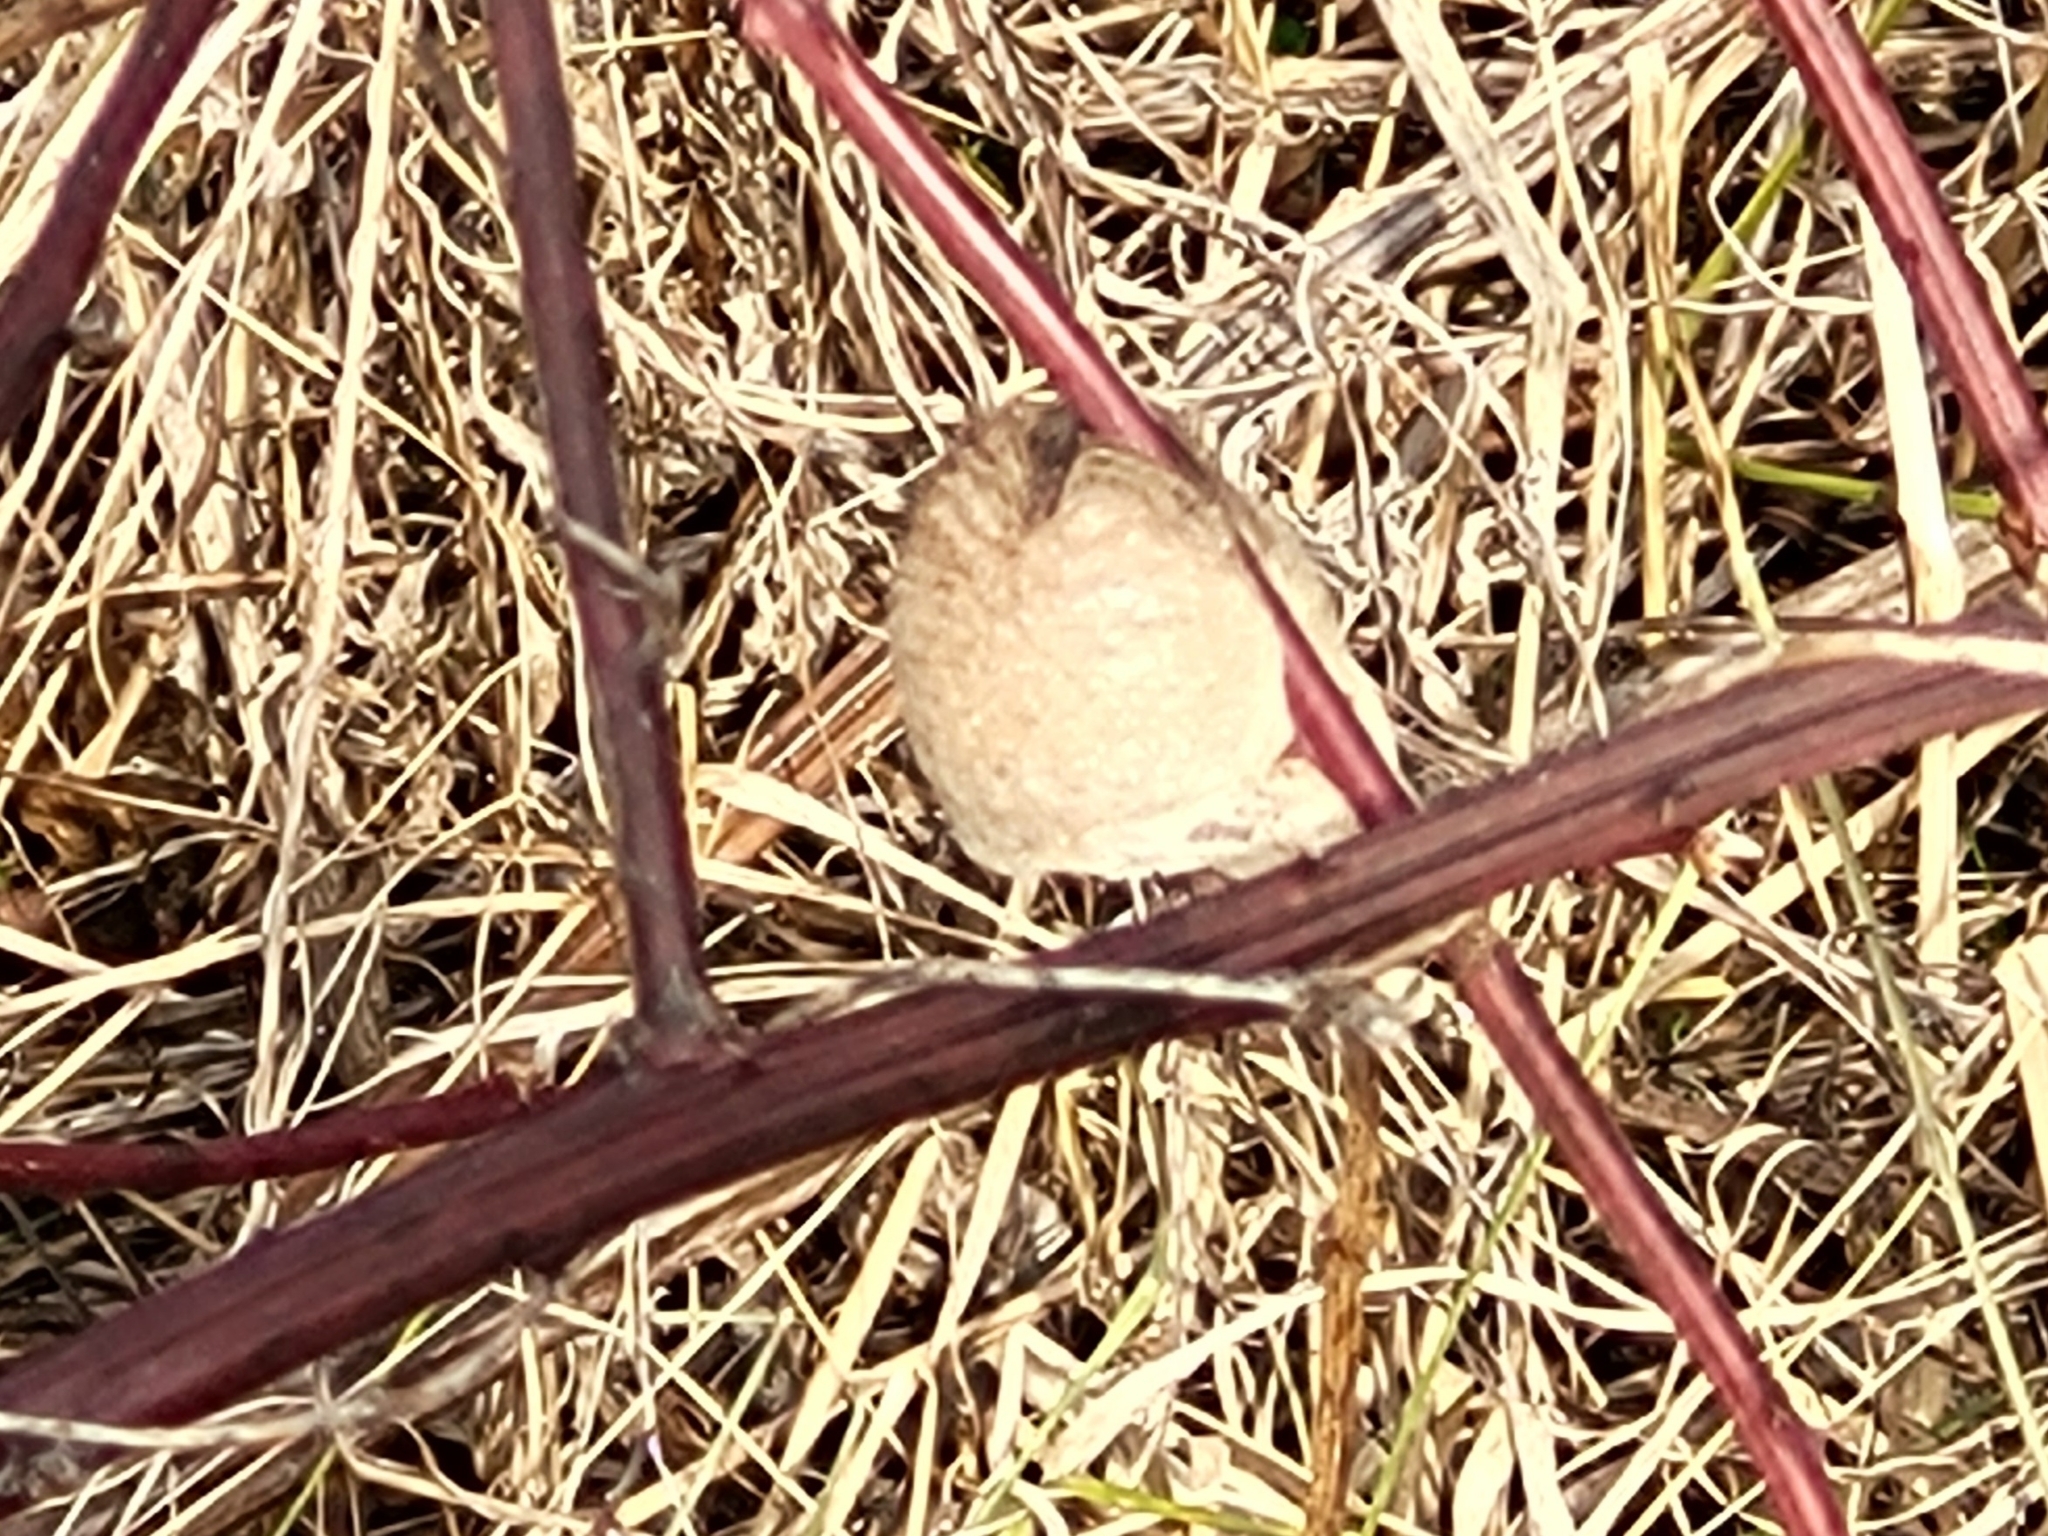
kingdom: Animalia
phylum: Arthropoda
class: Insecta
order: Mantodea
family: Mantidae
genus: Tenodera
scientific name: Tenodera sinensis
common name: Chinese mantis
